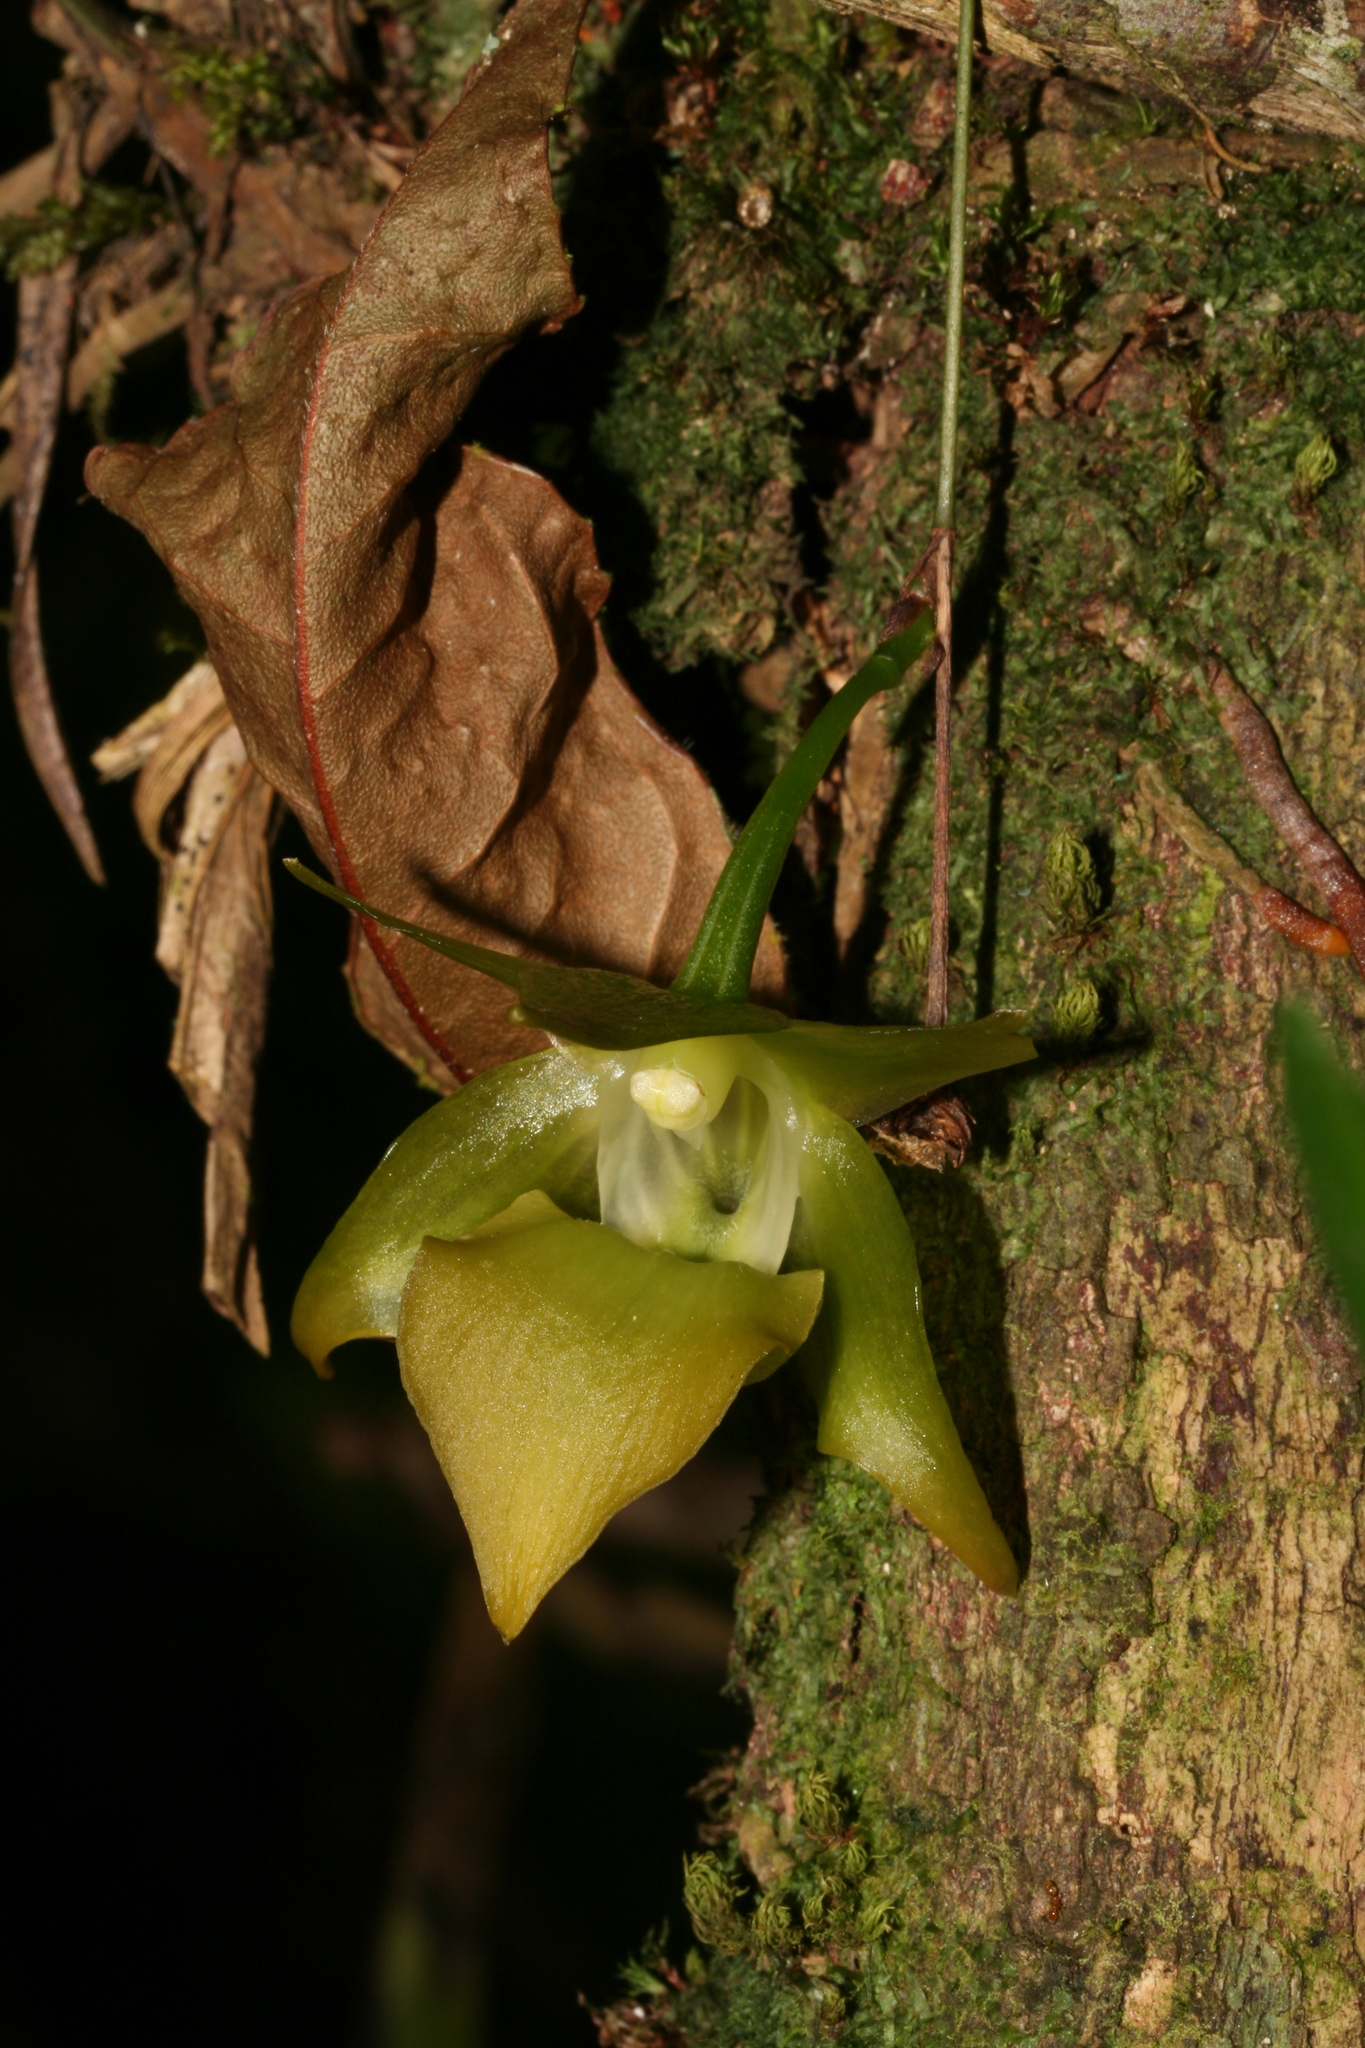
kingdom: Plantae
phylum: Tracheophyta
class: Liliopsida
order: Asparagales
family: Orchidaceae
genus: Aeranthes
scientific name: Aeranthes ramosa
